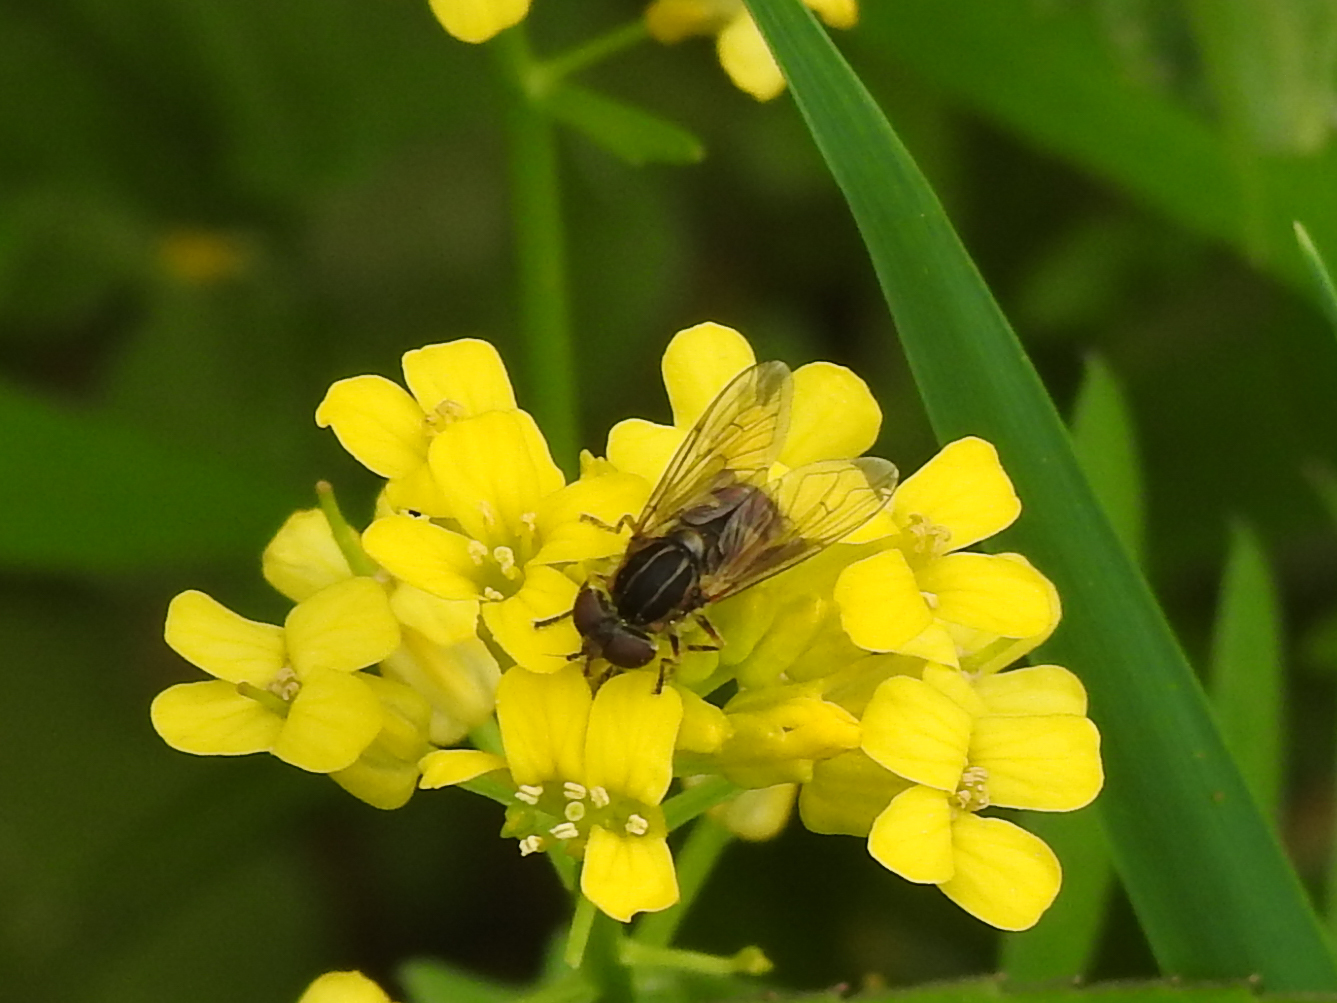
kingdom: Animalia
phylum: Arthropoda
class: Insecta
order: Diptera
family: Syrphidae
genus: Eurimyia
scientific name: Eurimyia stipatus
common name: Long-nosed swamp fly
